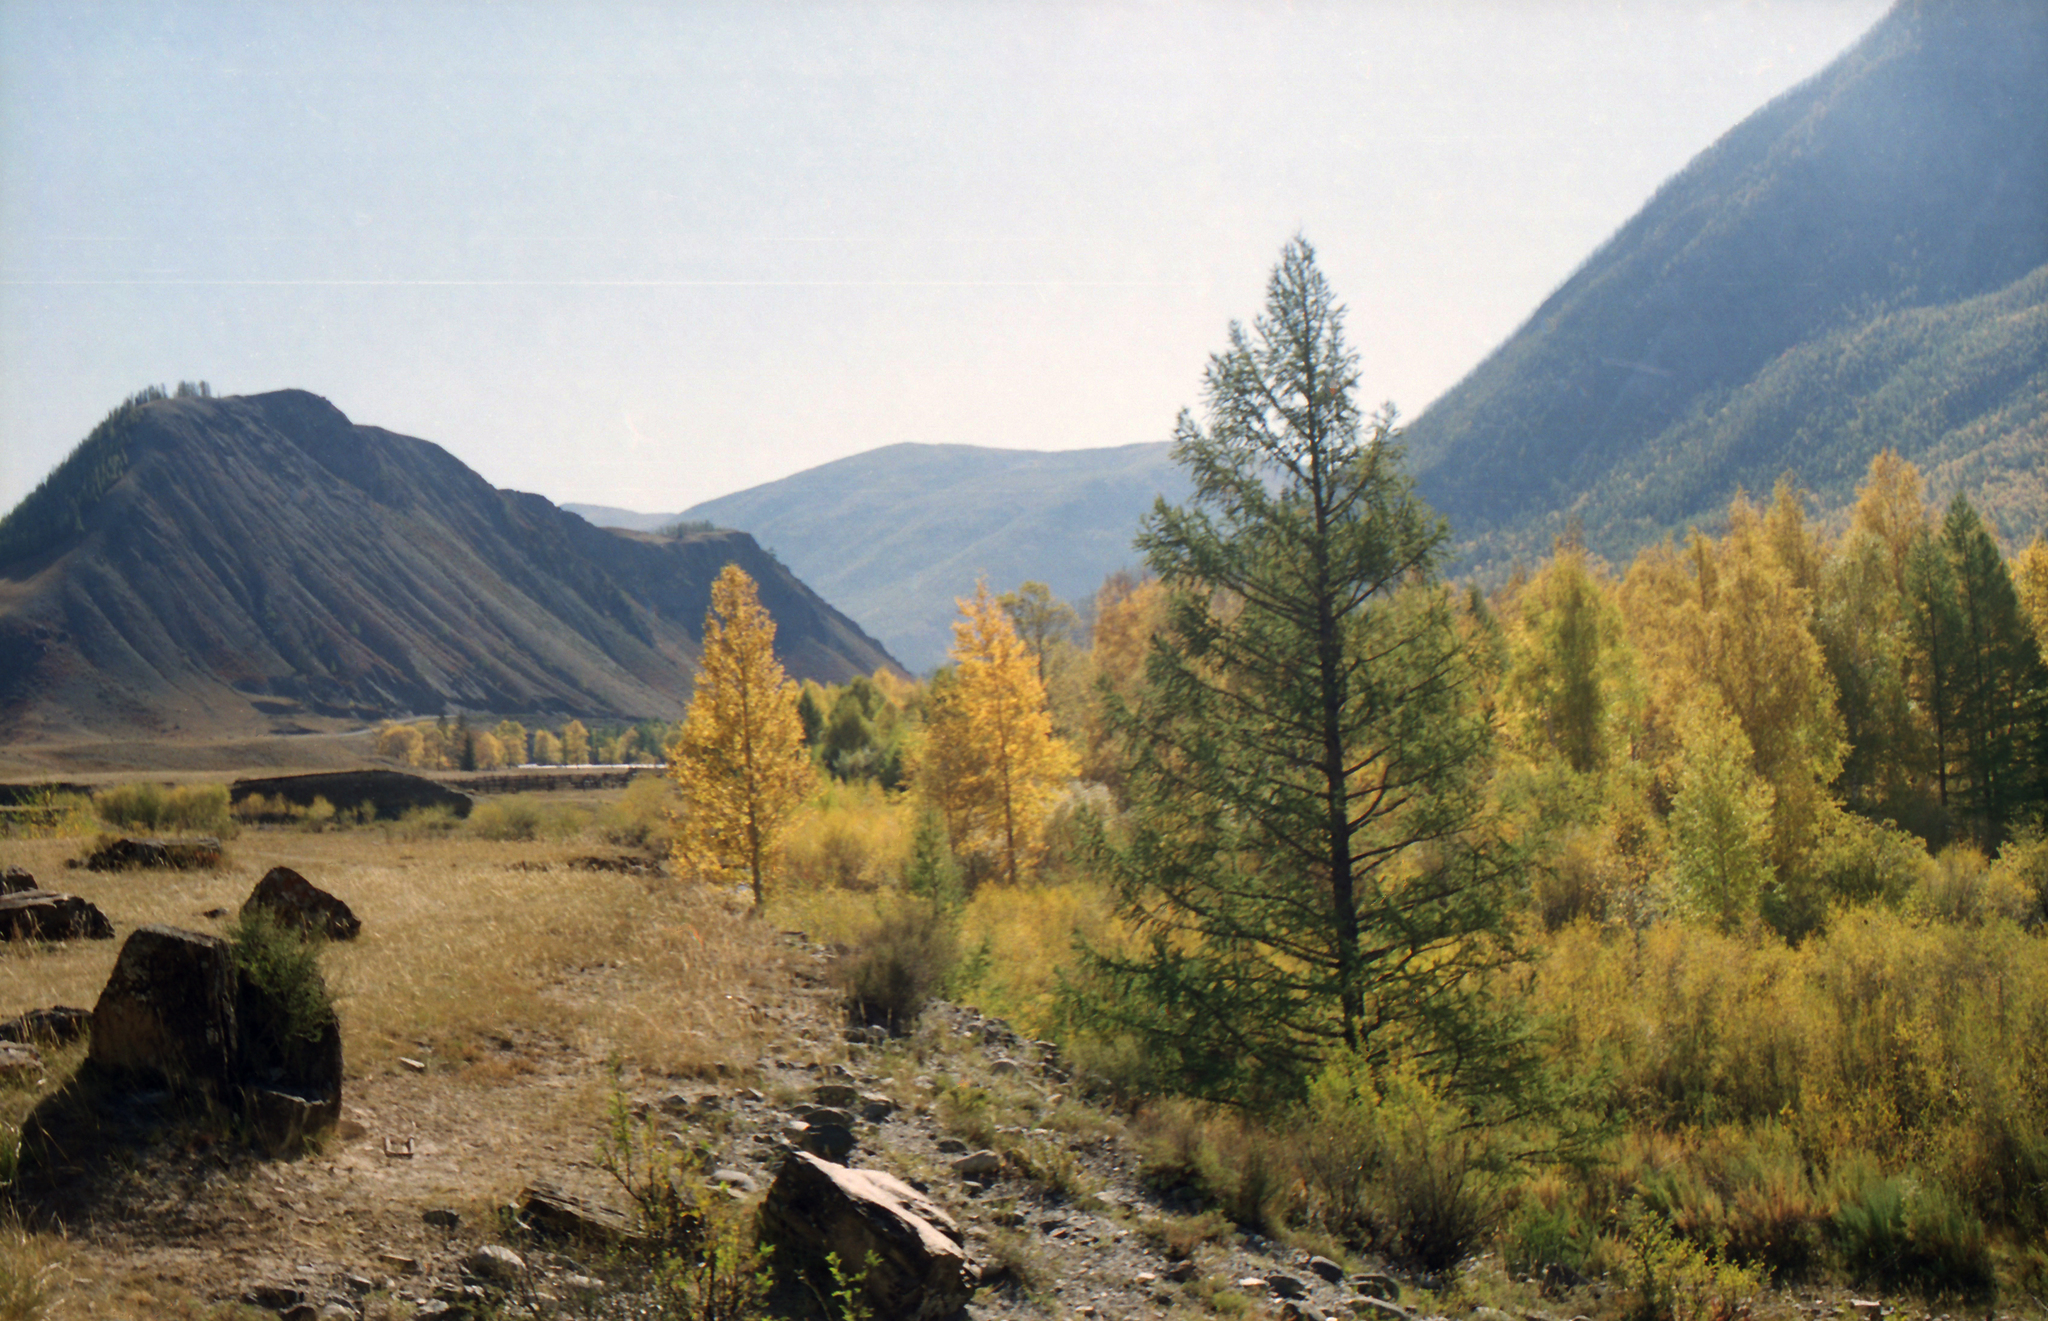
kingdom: Plantae
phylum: Tracheophyta
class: Pinopsida
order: Pinales
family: Pinaceae
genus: Larix
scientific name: Larix sibirica
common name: Siberian larch
